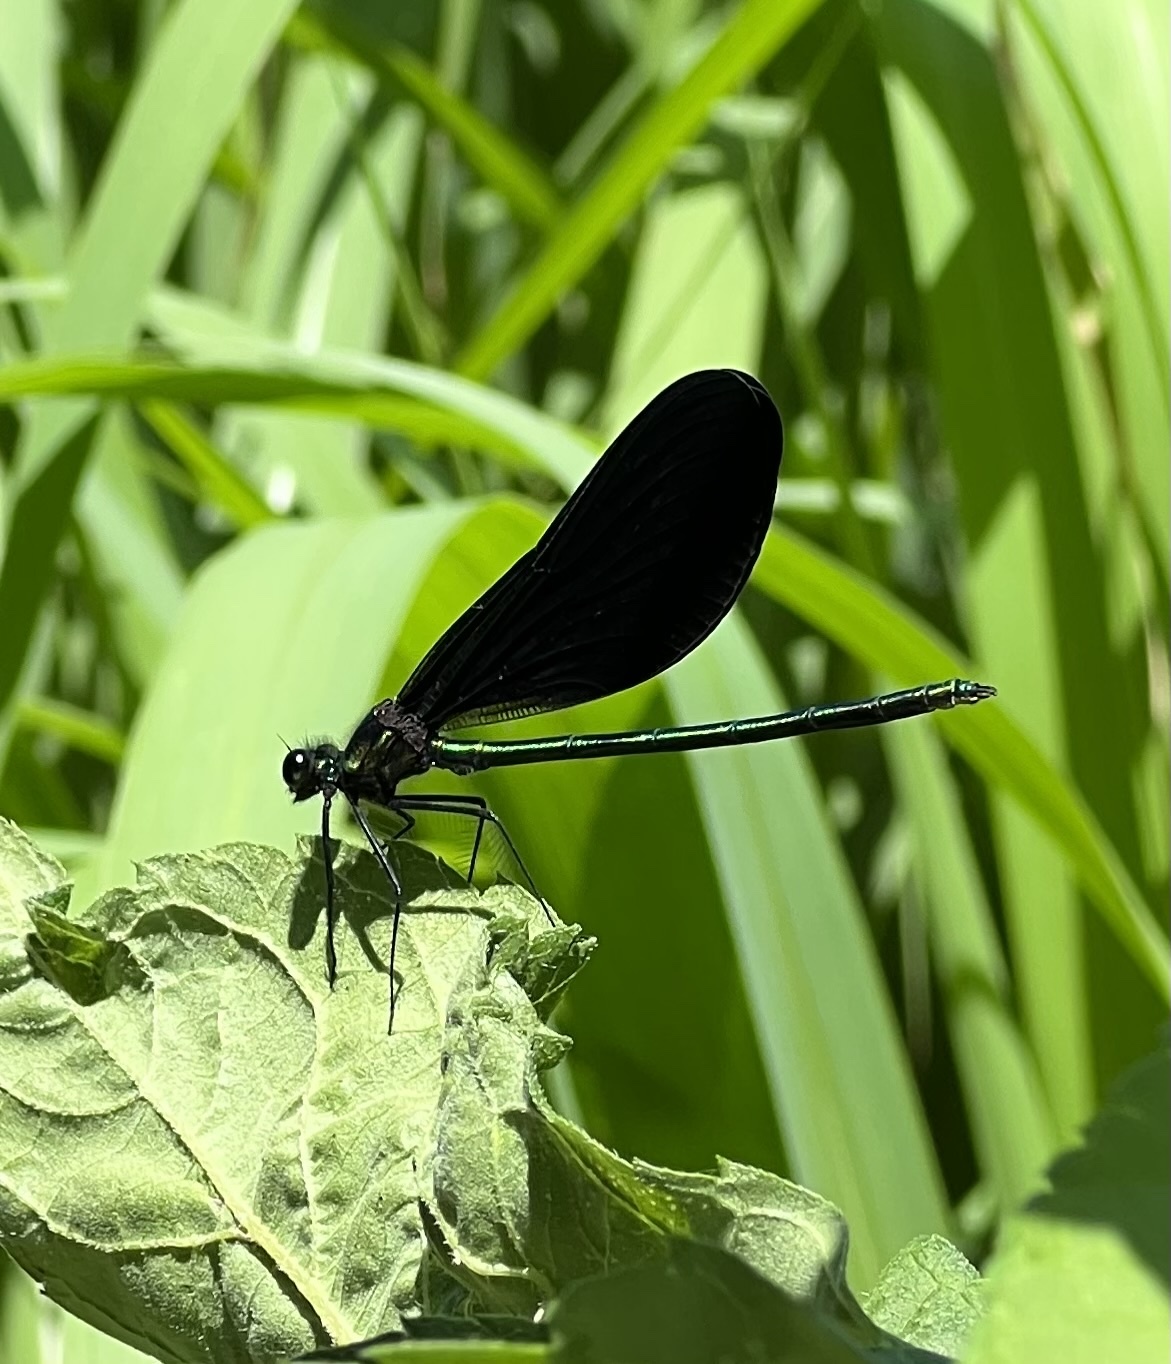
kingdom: Animalia
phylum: Arthropoda
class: Insecta
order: Odonata
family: Calopterygidae
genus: Calopteryx
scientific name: Calopteryx maculata
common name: Ebony jewelwing
